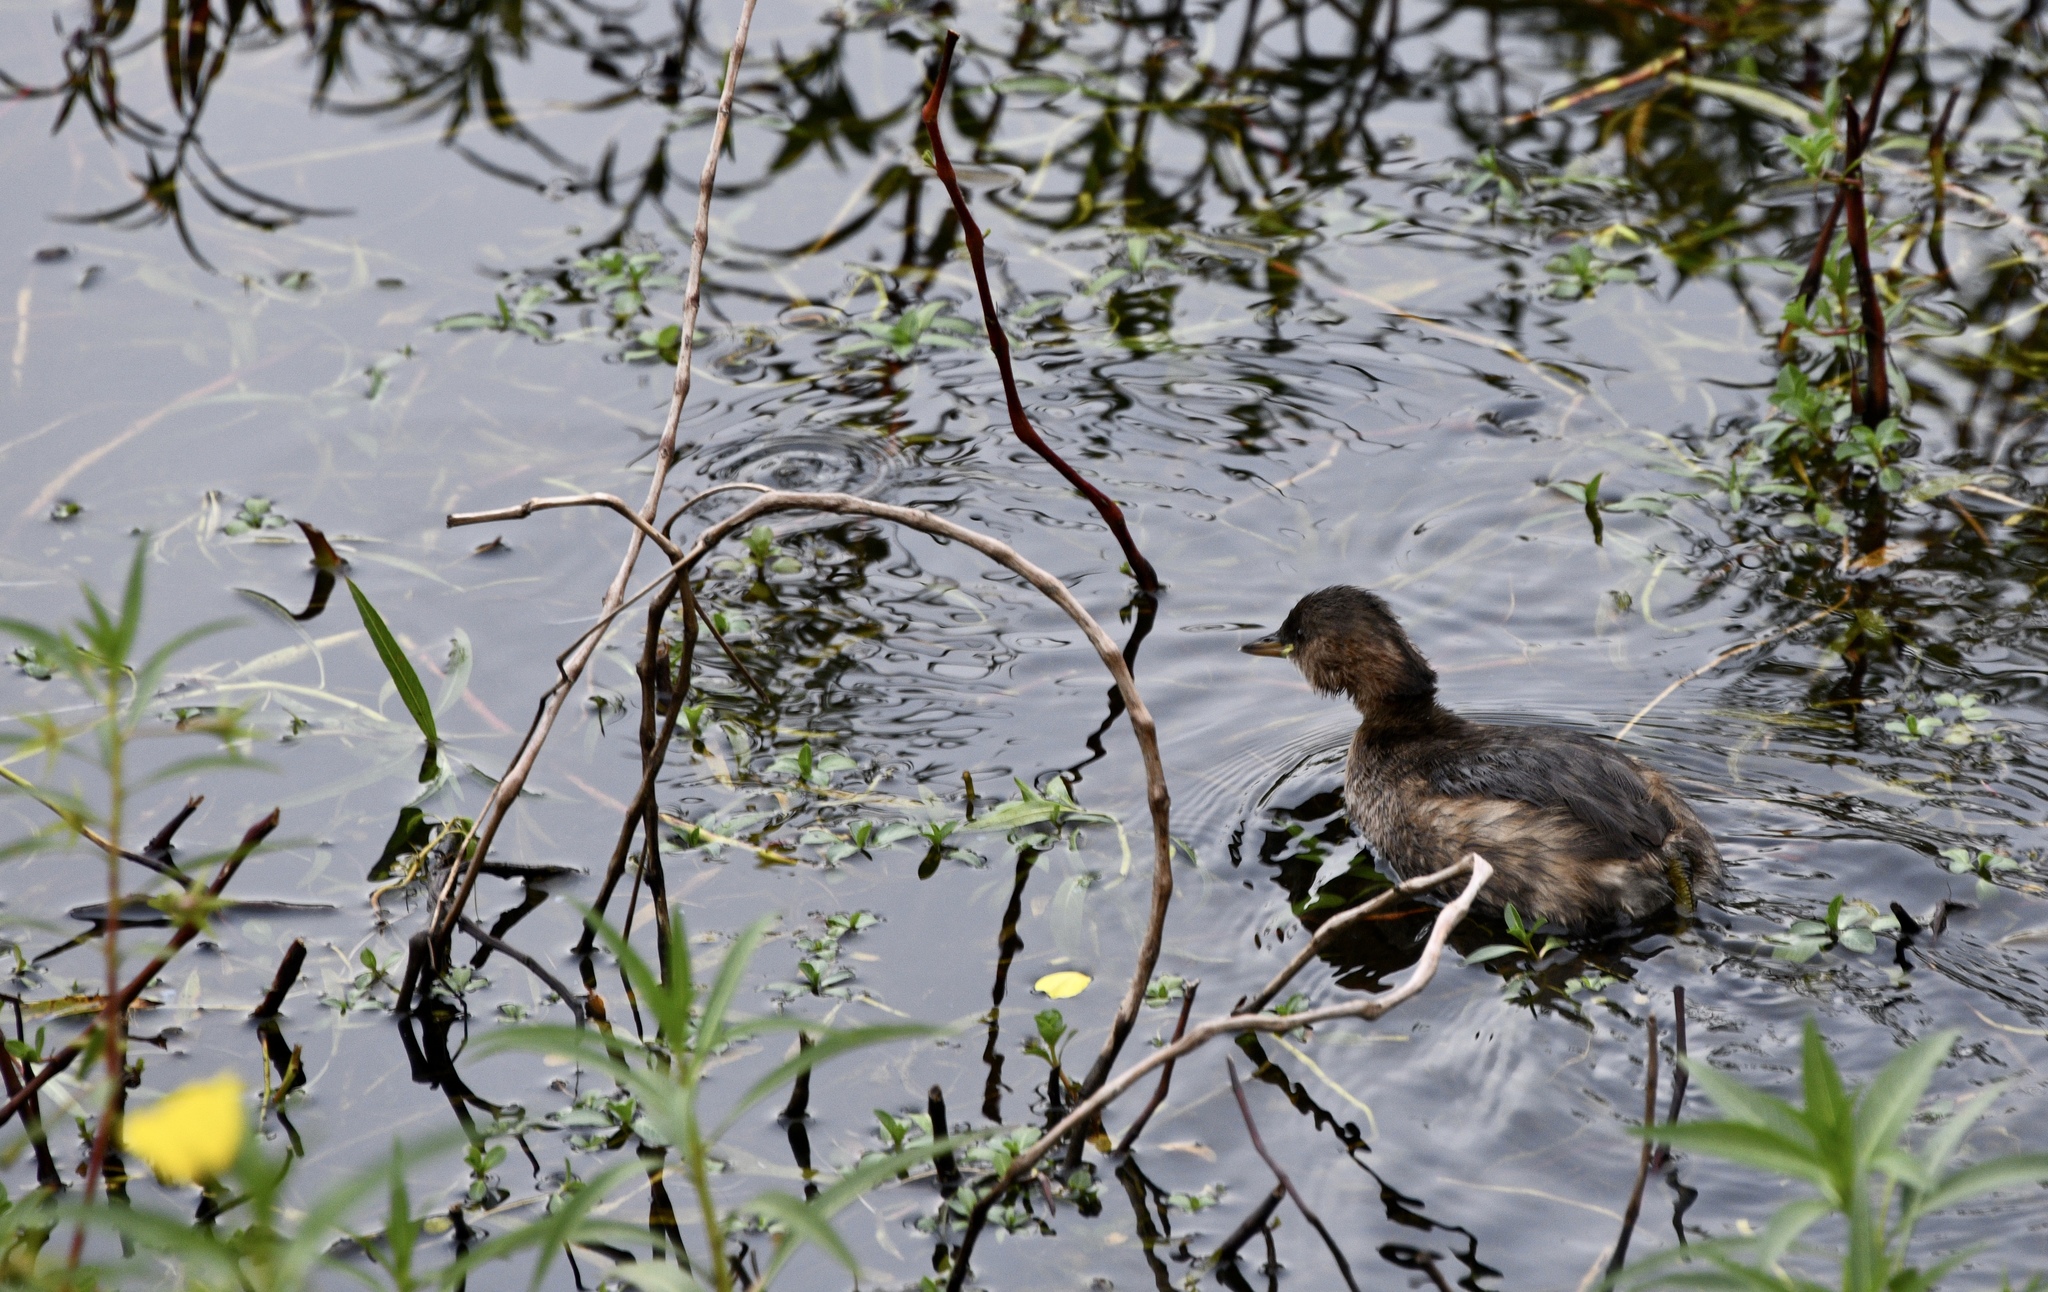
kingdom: Animalia
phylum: Chordata
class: Aves
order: Podicipediformes
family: Podicipedidae
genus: Tachybaptus
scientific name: Tachybaptus ruficollis
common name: Little grebe
